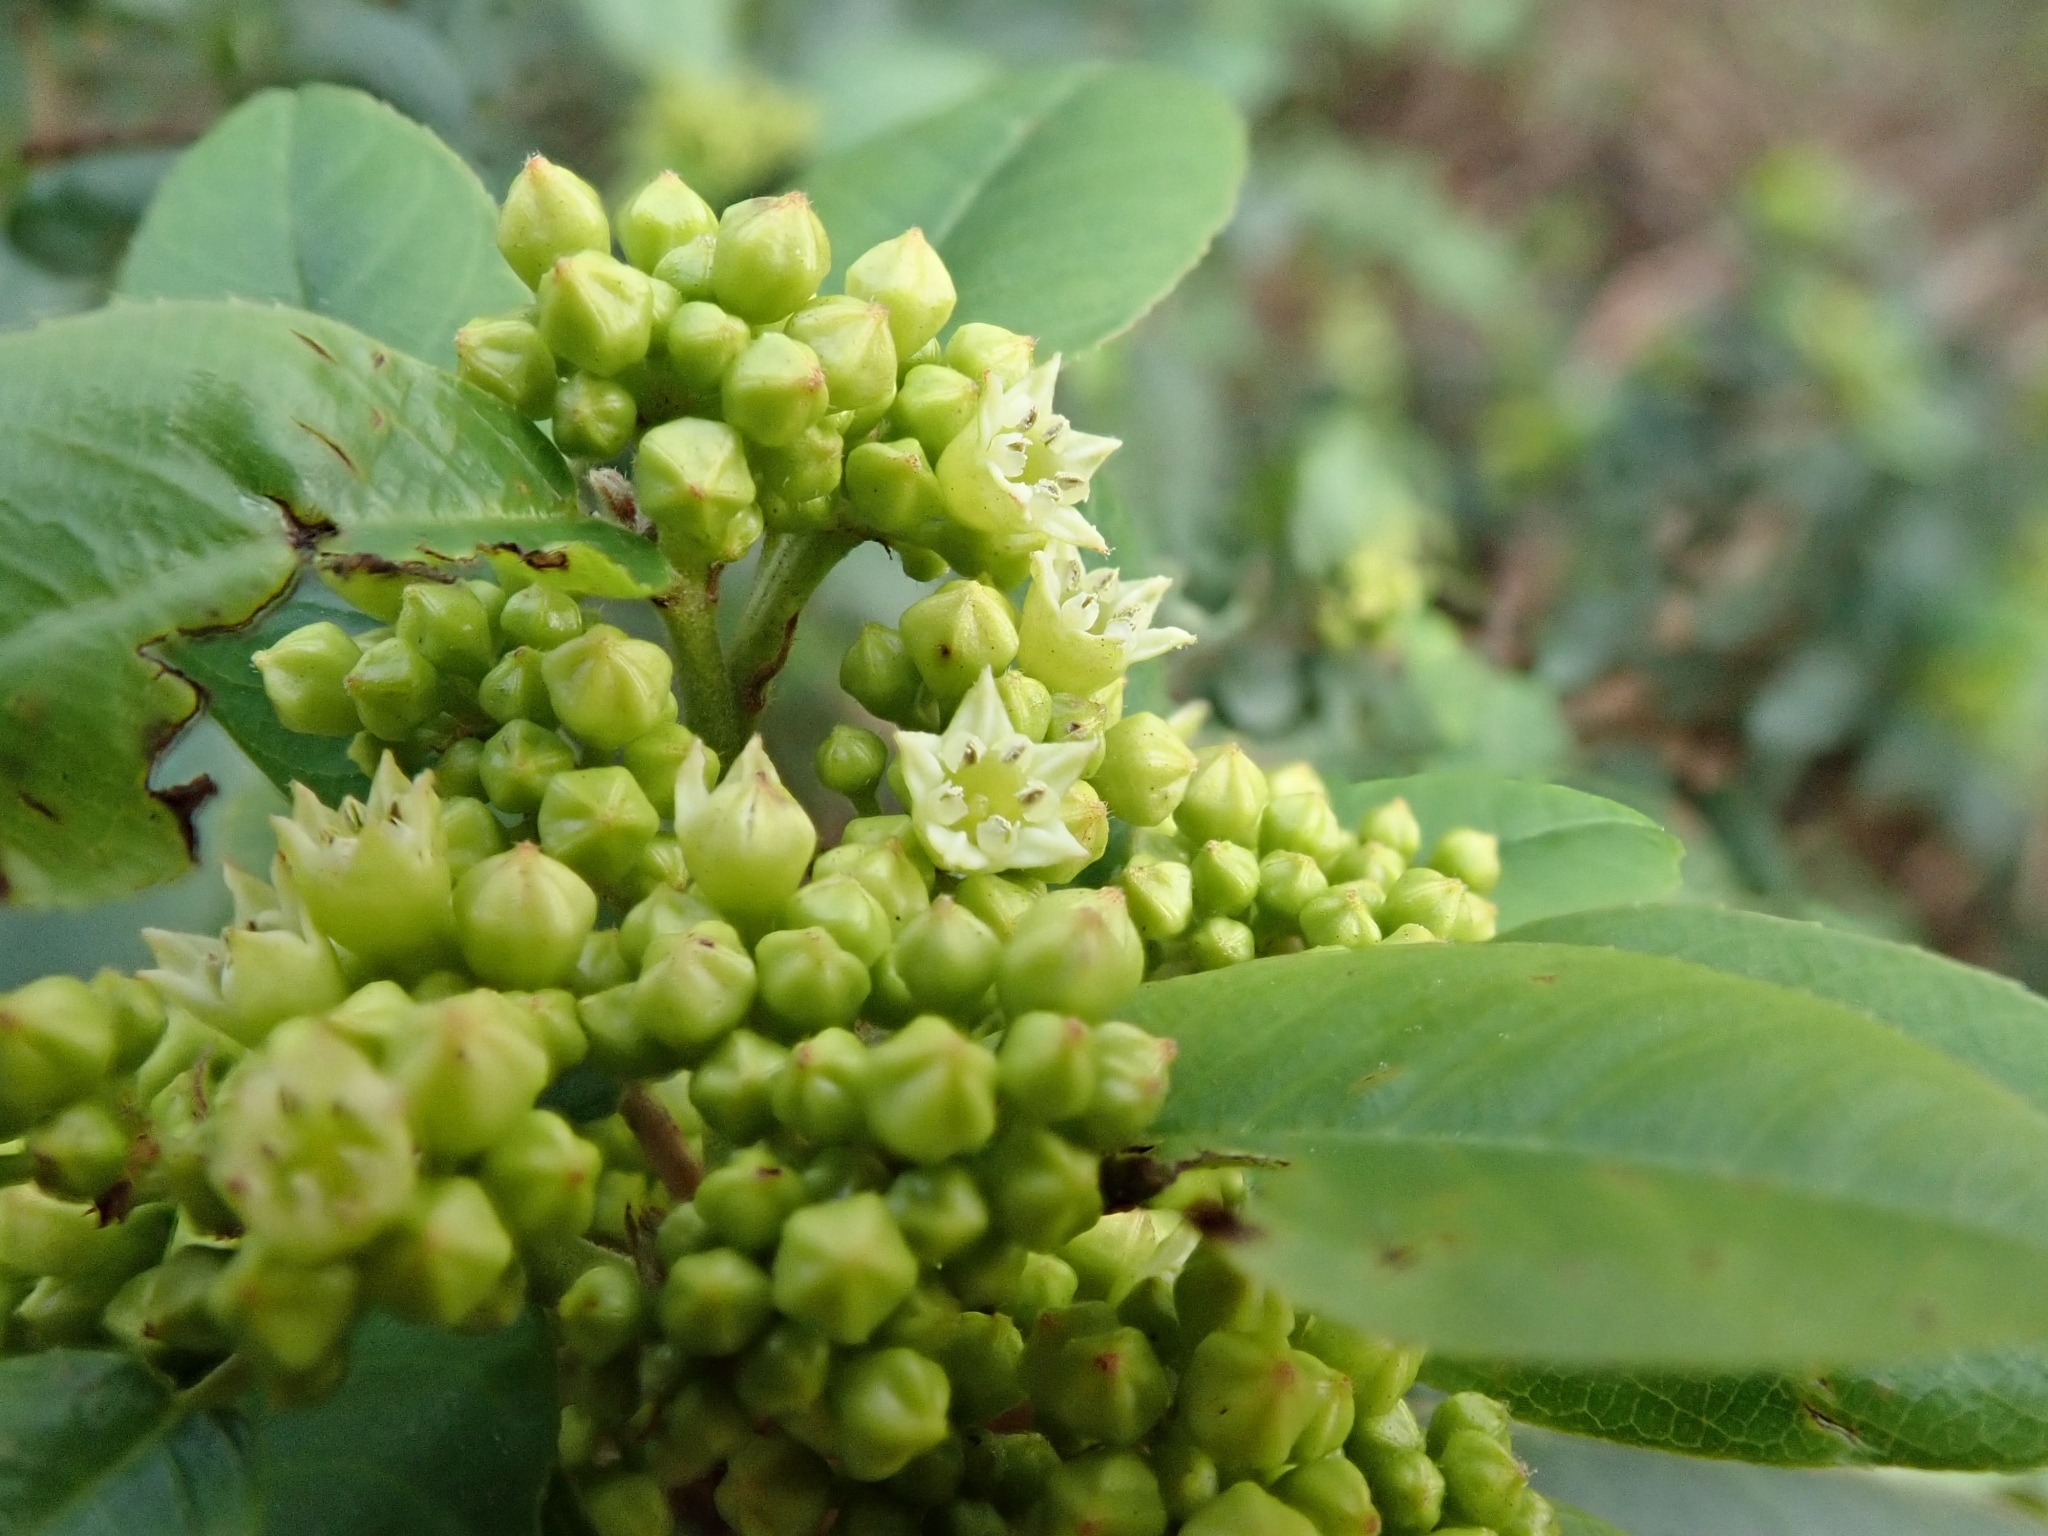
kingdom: Plantae
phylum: Tracheophyta
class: Magnoliopsida
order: Rosales
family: Rhamnaceae
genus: Frangula
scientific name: Frangula californica
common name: California buckthorn
